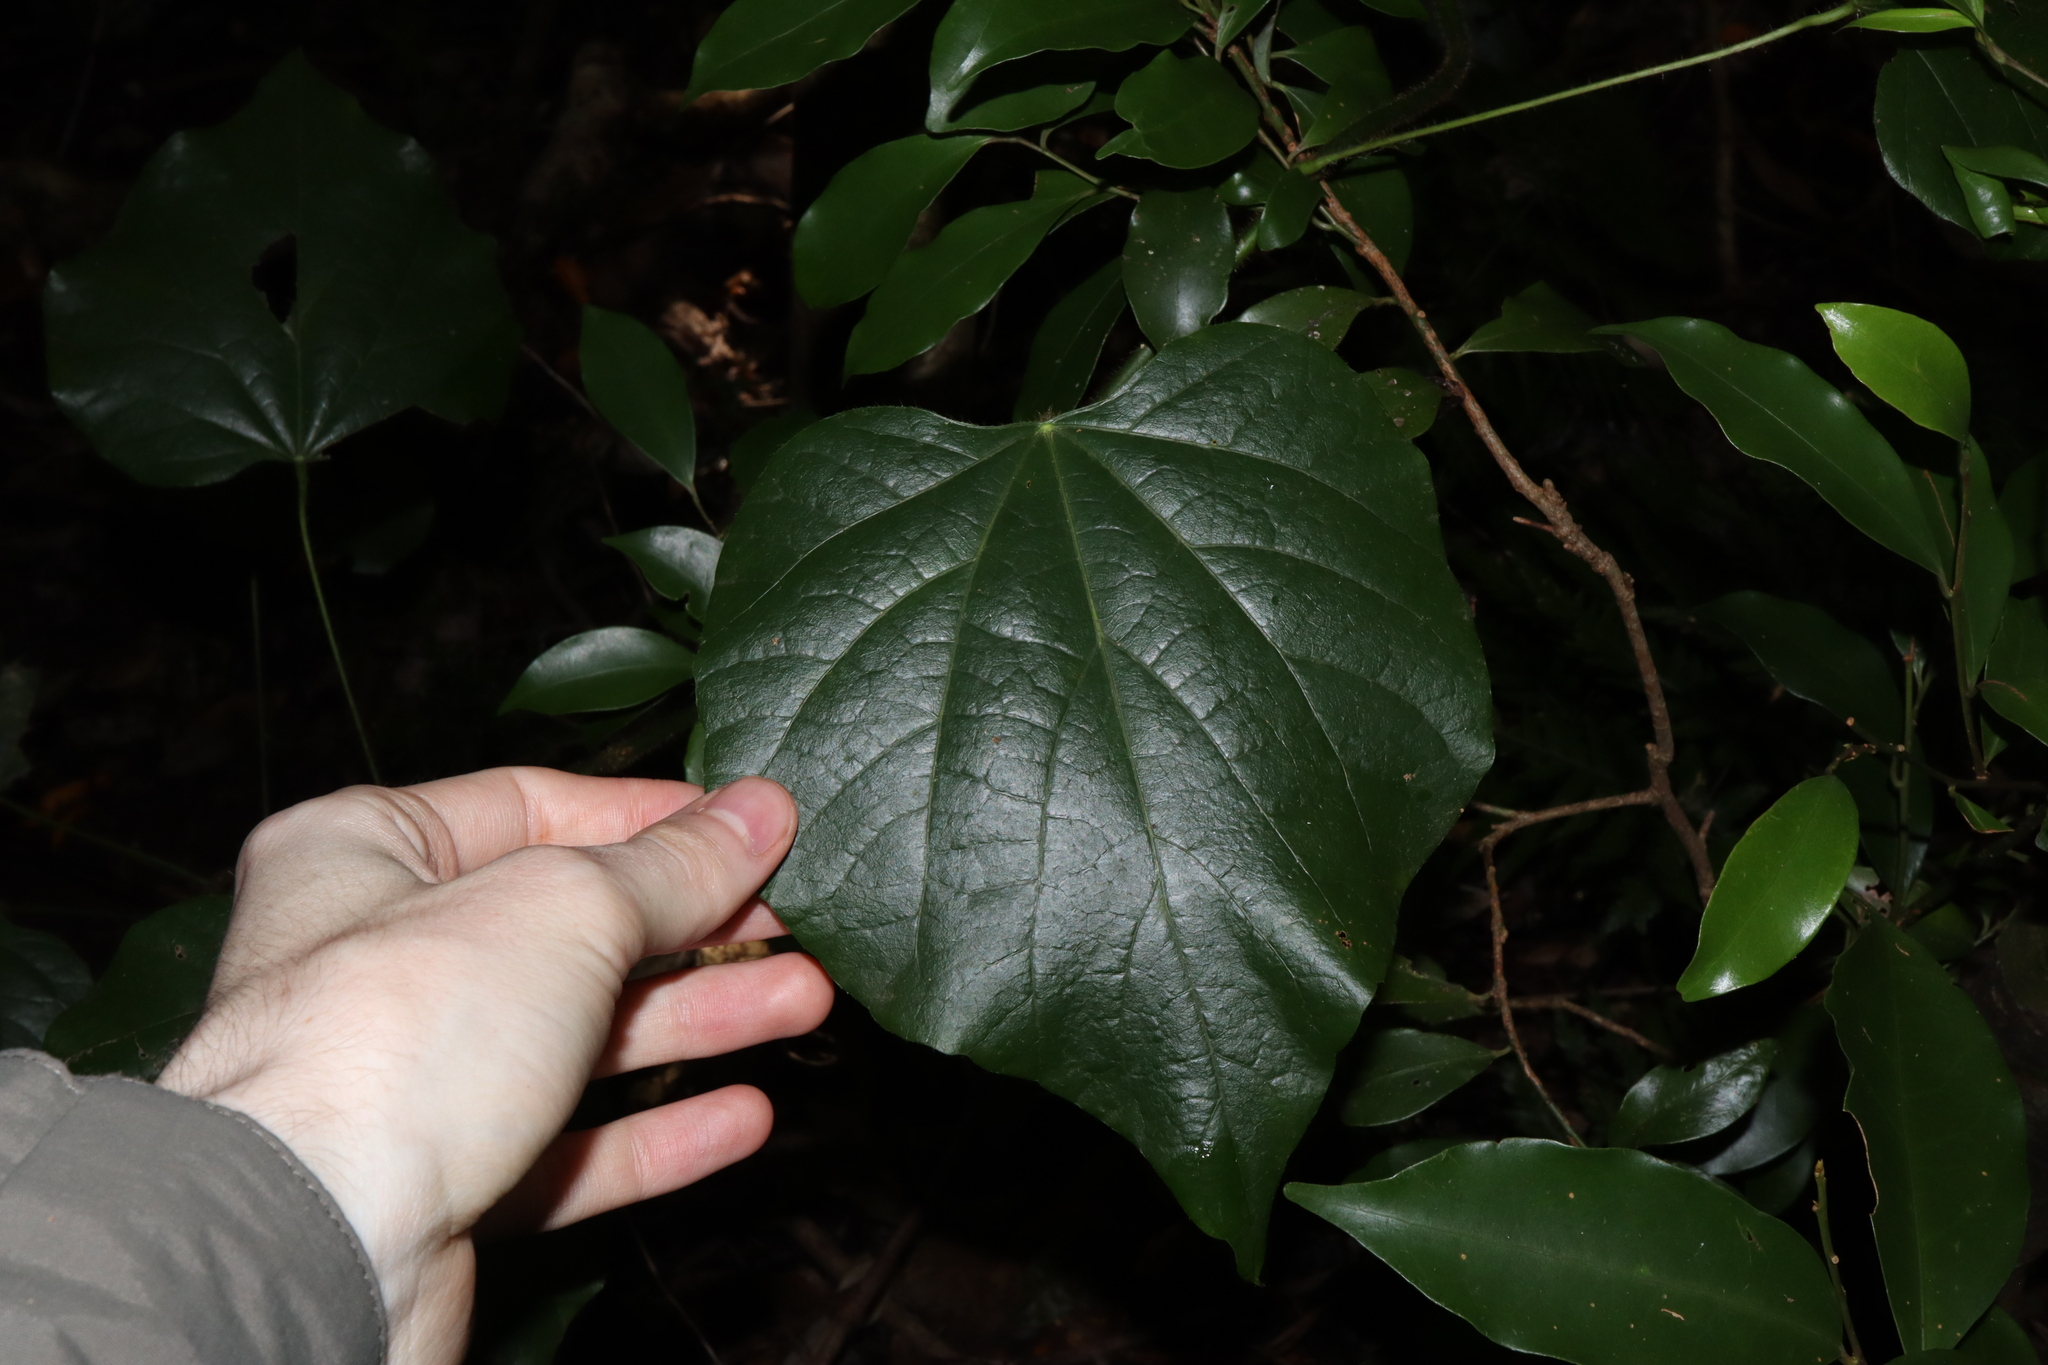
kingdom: Plantae
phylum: Tracheophyta
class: Magnoliopsida
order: Ranunculales
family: Menispermaceae
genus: Legnephora
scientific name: Legnephora moorei
